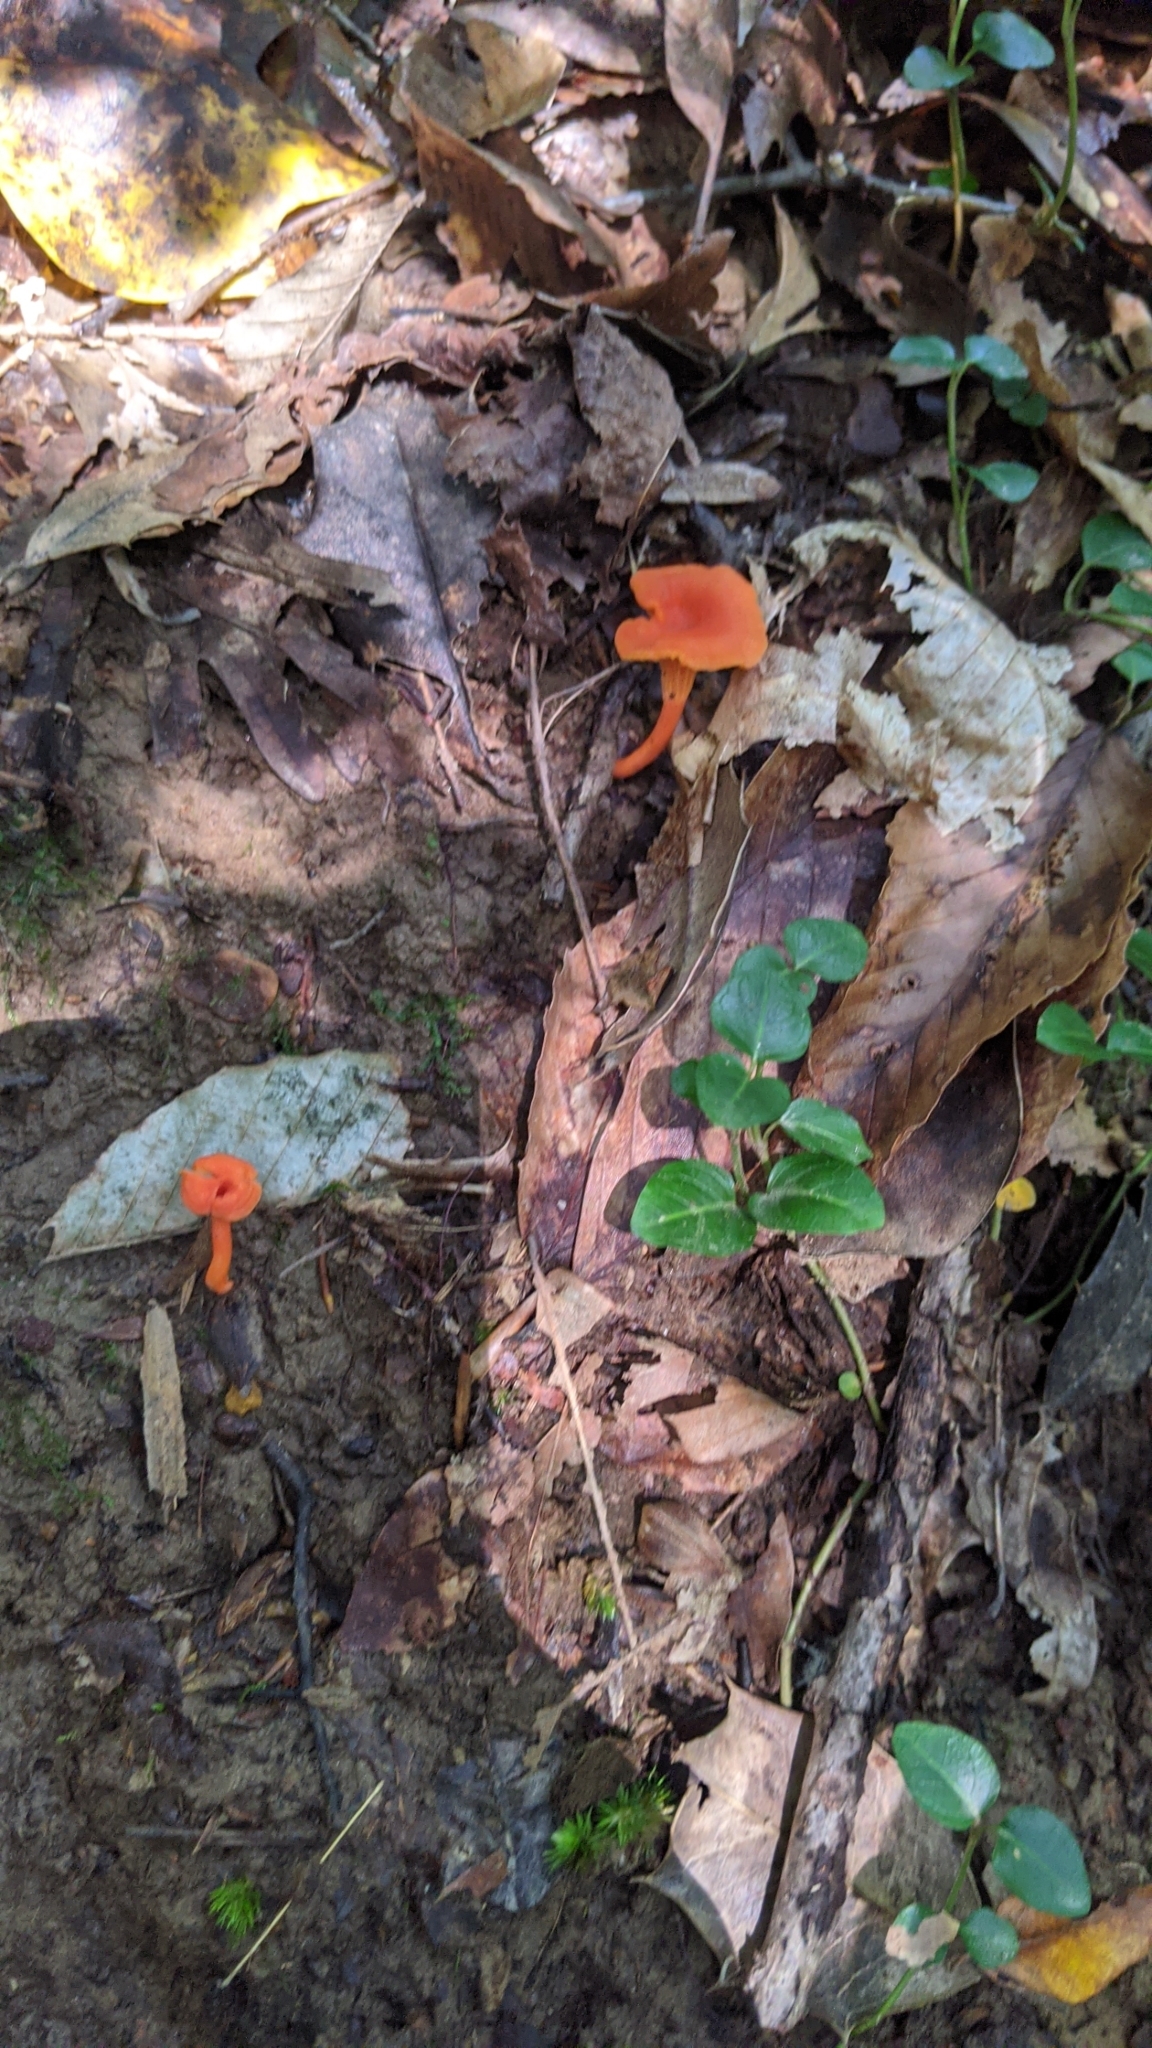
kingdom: Fungi
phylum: Basidiomycota
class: Agaricomycetes
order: Cantharellales
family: Hydnaceae
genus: Cantharellus
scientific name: Cantharellus cinnabarinus
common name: Cinnabar chanterelle
